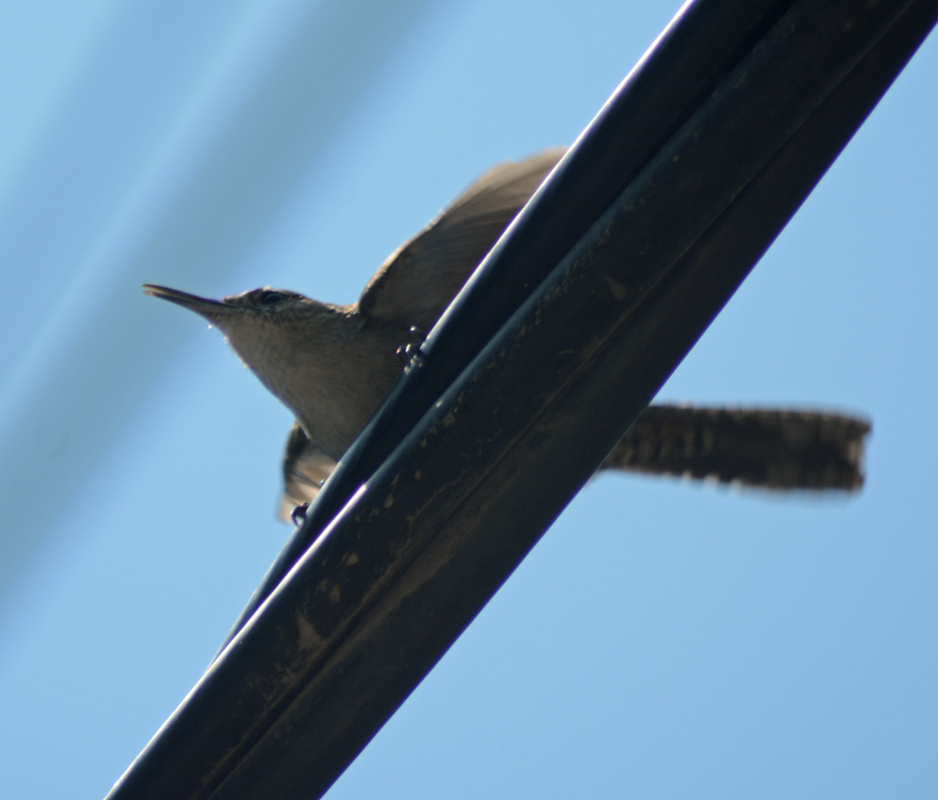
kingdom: Animalia
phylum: Chordata
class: Aves
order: Passeriformes
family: Troglodytidae
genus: Thryomanes
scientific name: Thryomanes bewickii
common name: Bewick's wren
